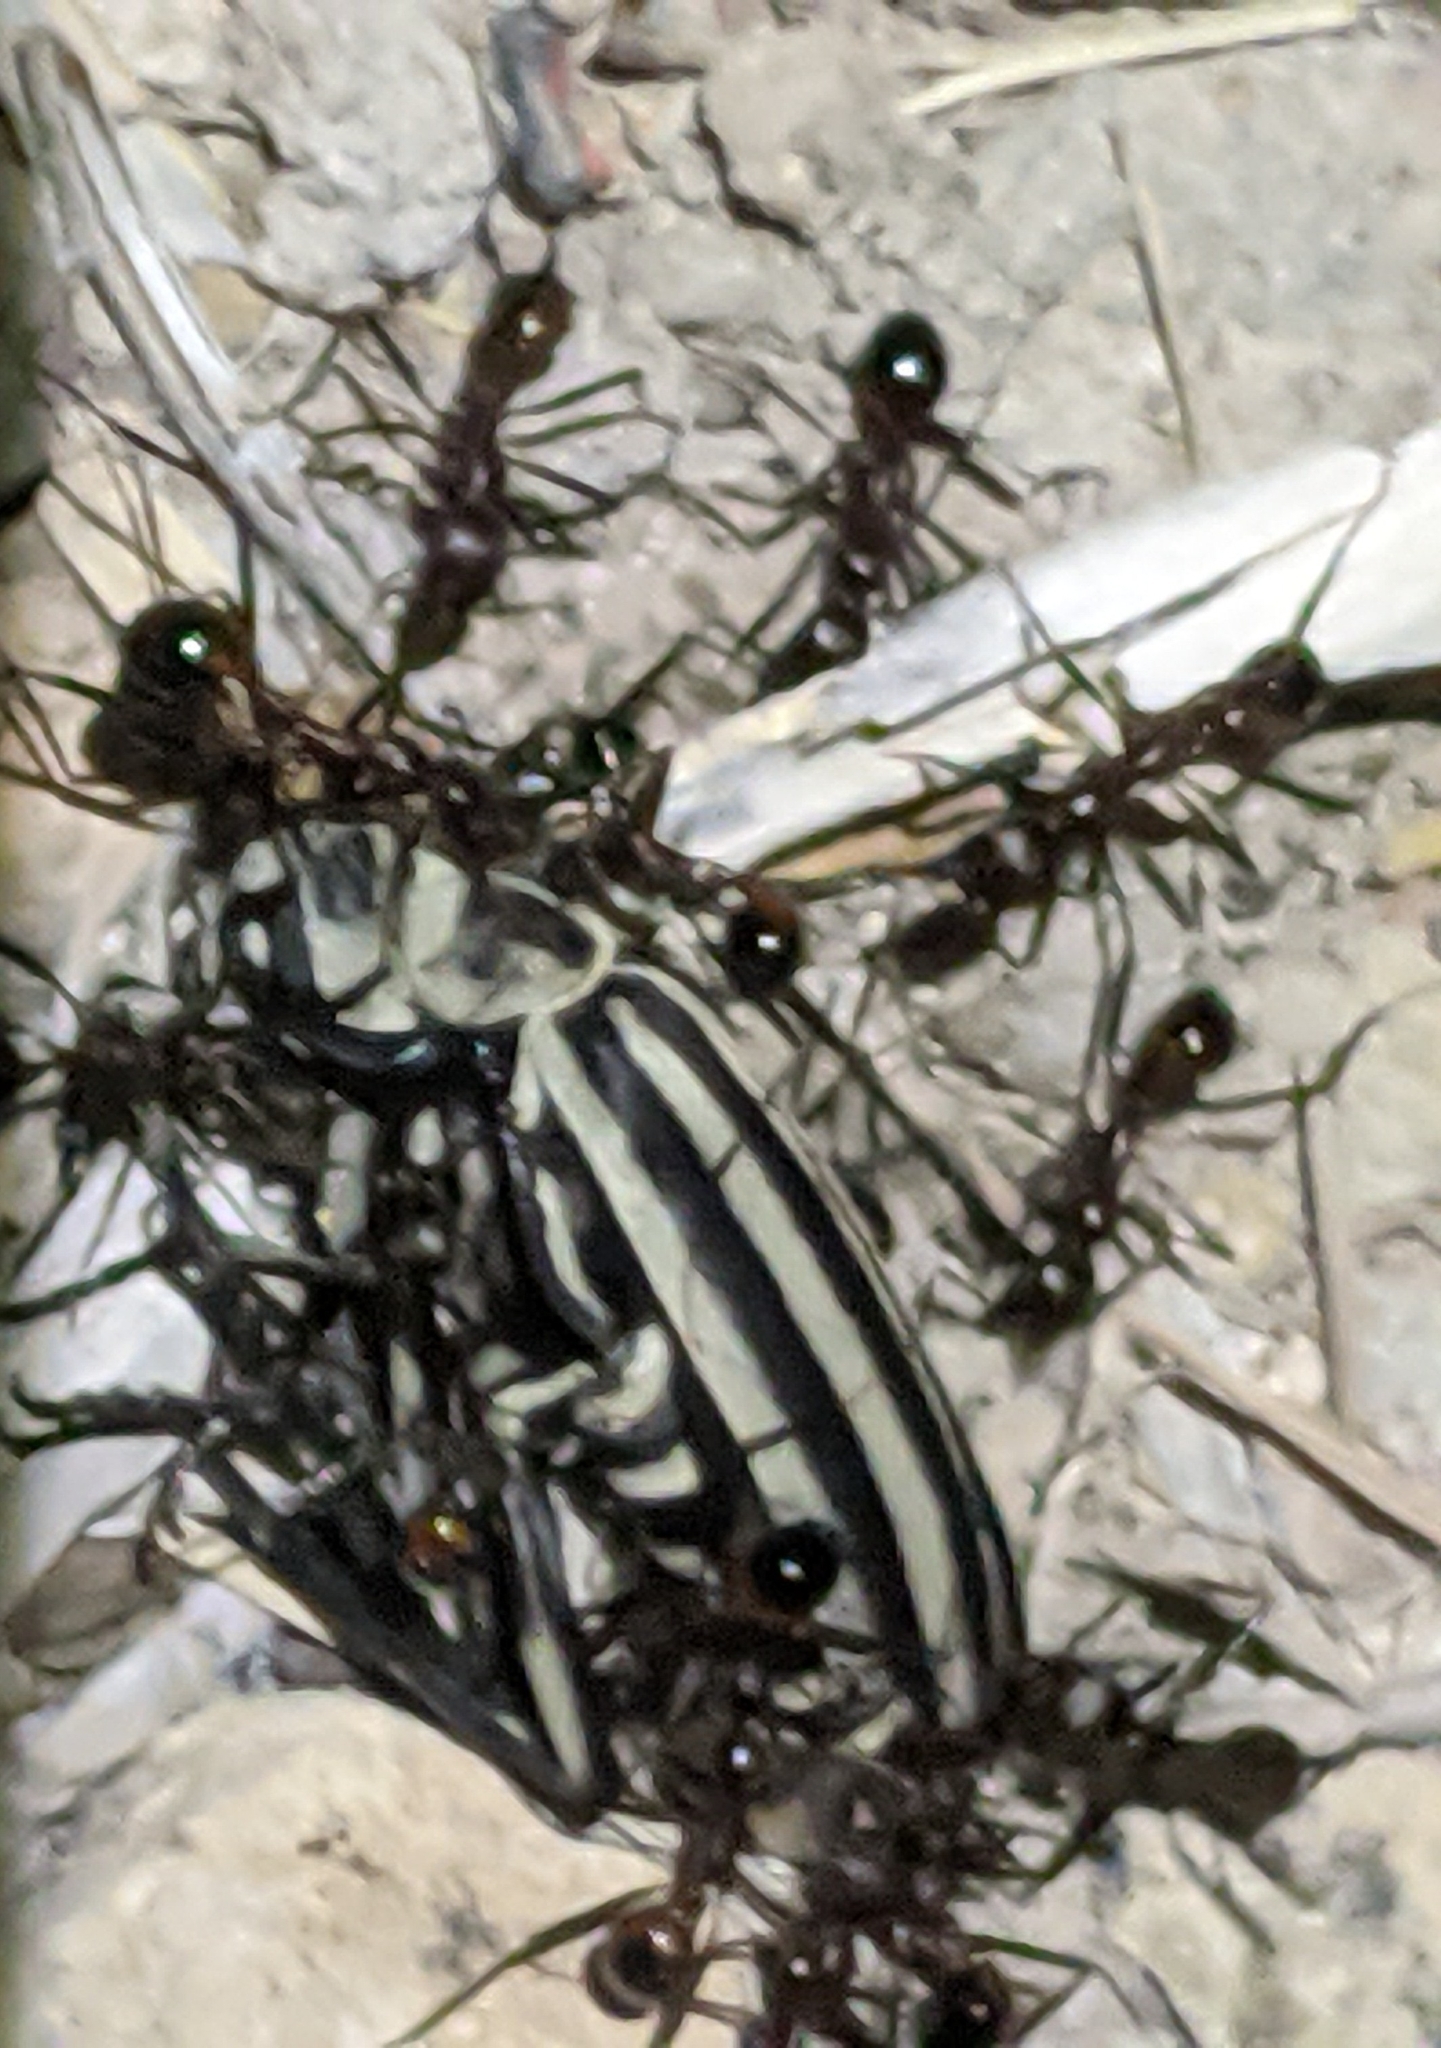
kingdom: Animalia
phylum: Arthropoda
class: Insecta
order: Coleoptera
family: Meloidae
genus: Epicauta
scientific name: Epicauta atrivittata
